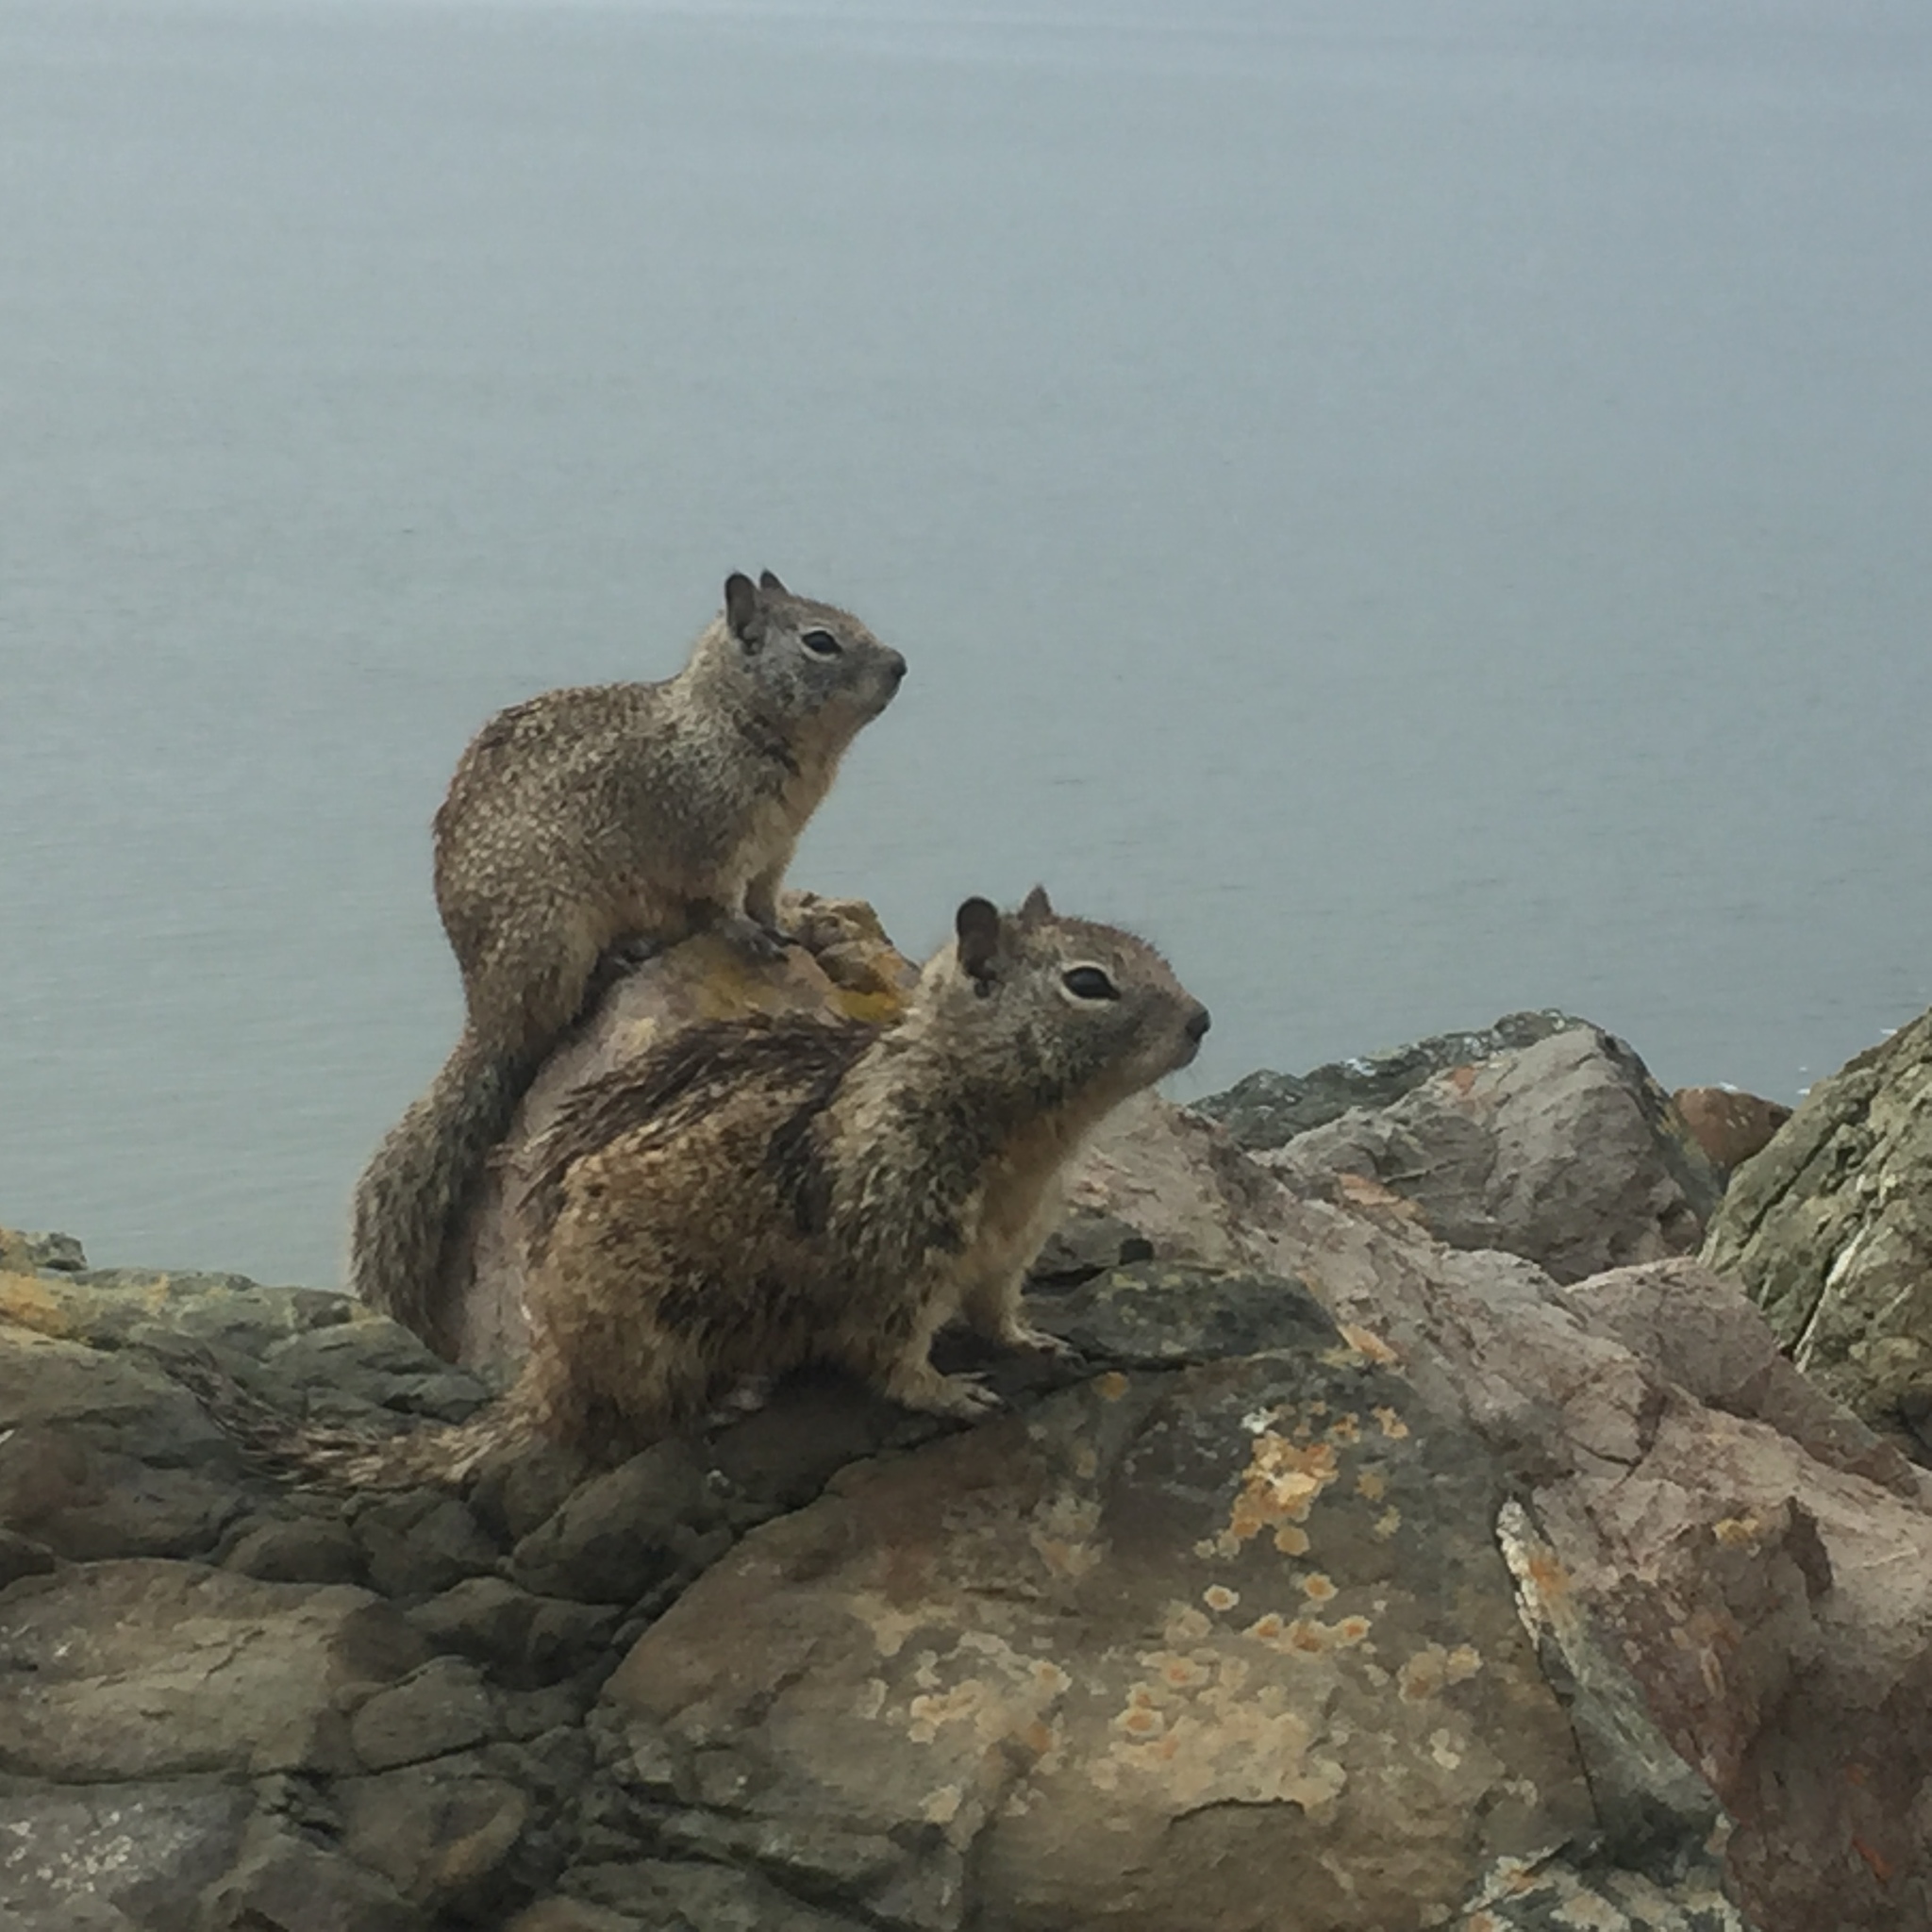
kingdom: Animalia
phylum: Chordata
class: Mammalia
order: Rodentia
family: Sciuridae
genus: Otospermophilus
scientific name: Otospermophilus beecheyi
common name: California ground squirrel
